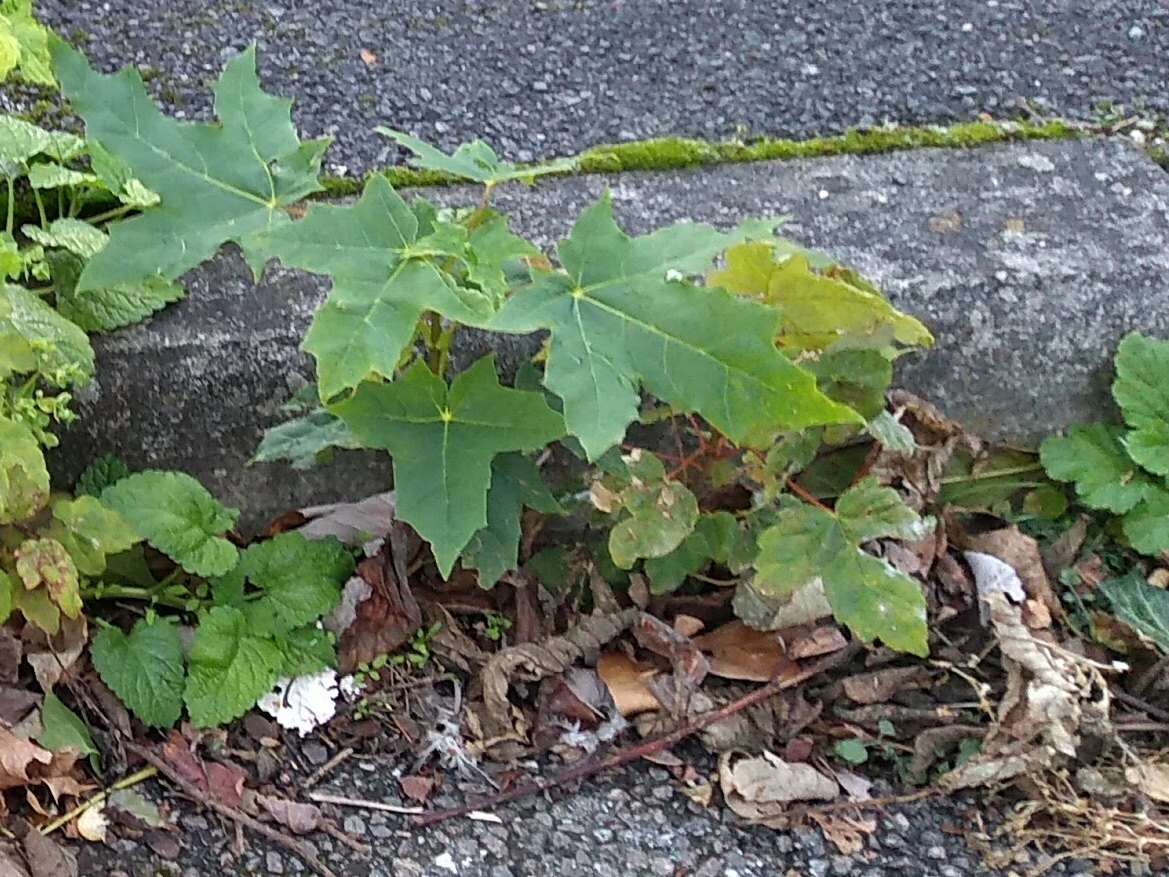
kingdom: Plantae
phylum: Tracheophyta
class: Magnoliopsida
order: Sapindales
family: Sapindaceae
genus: Acer
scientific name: Acer platanoides
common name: Norway maple
